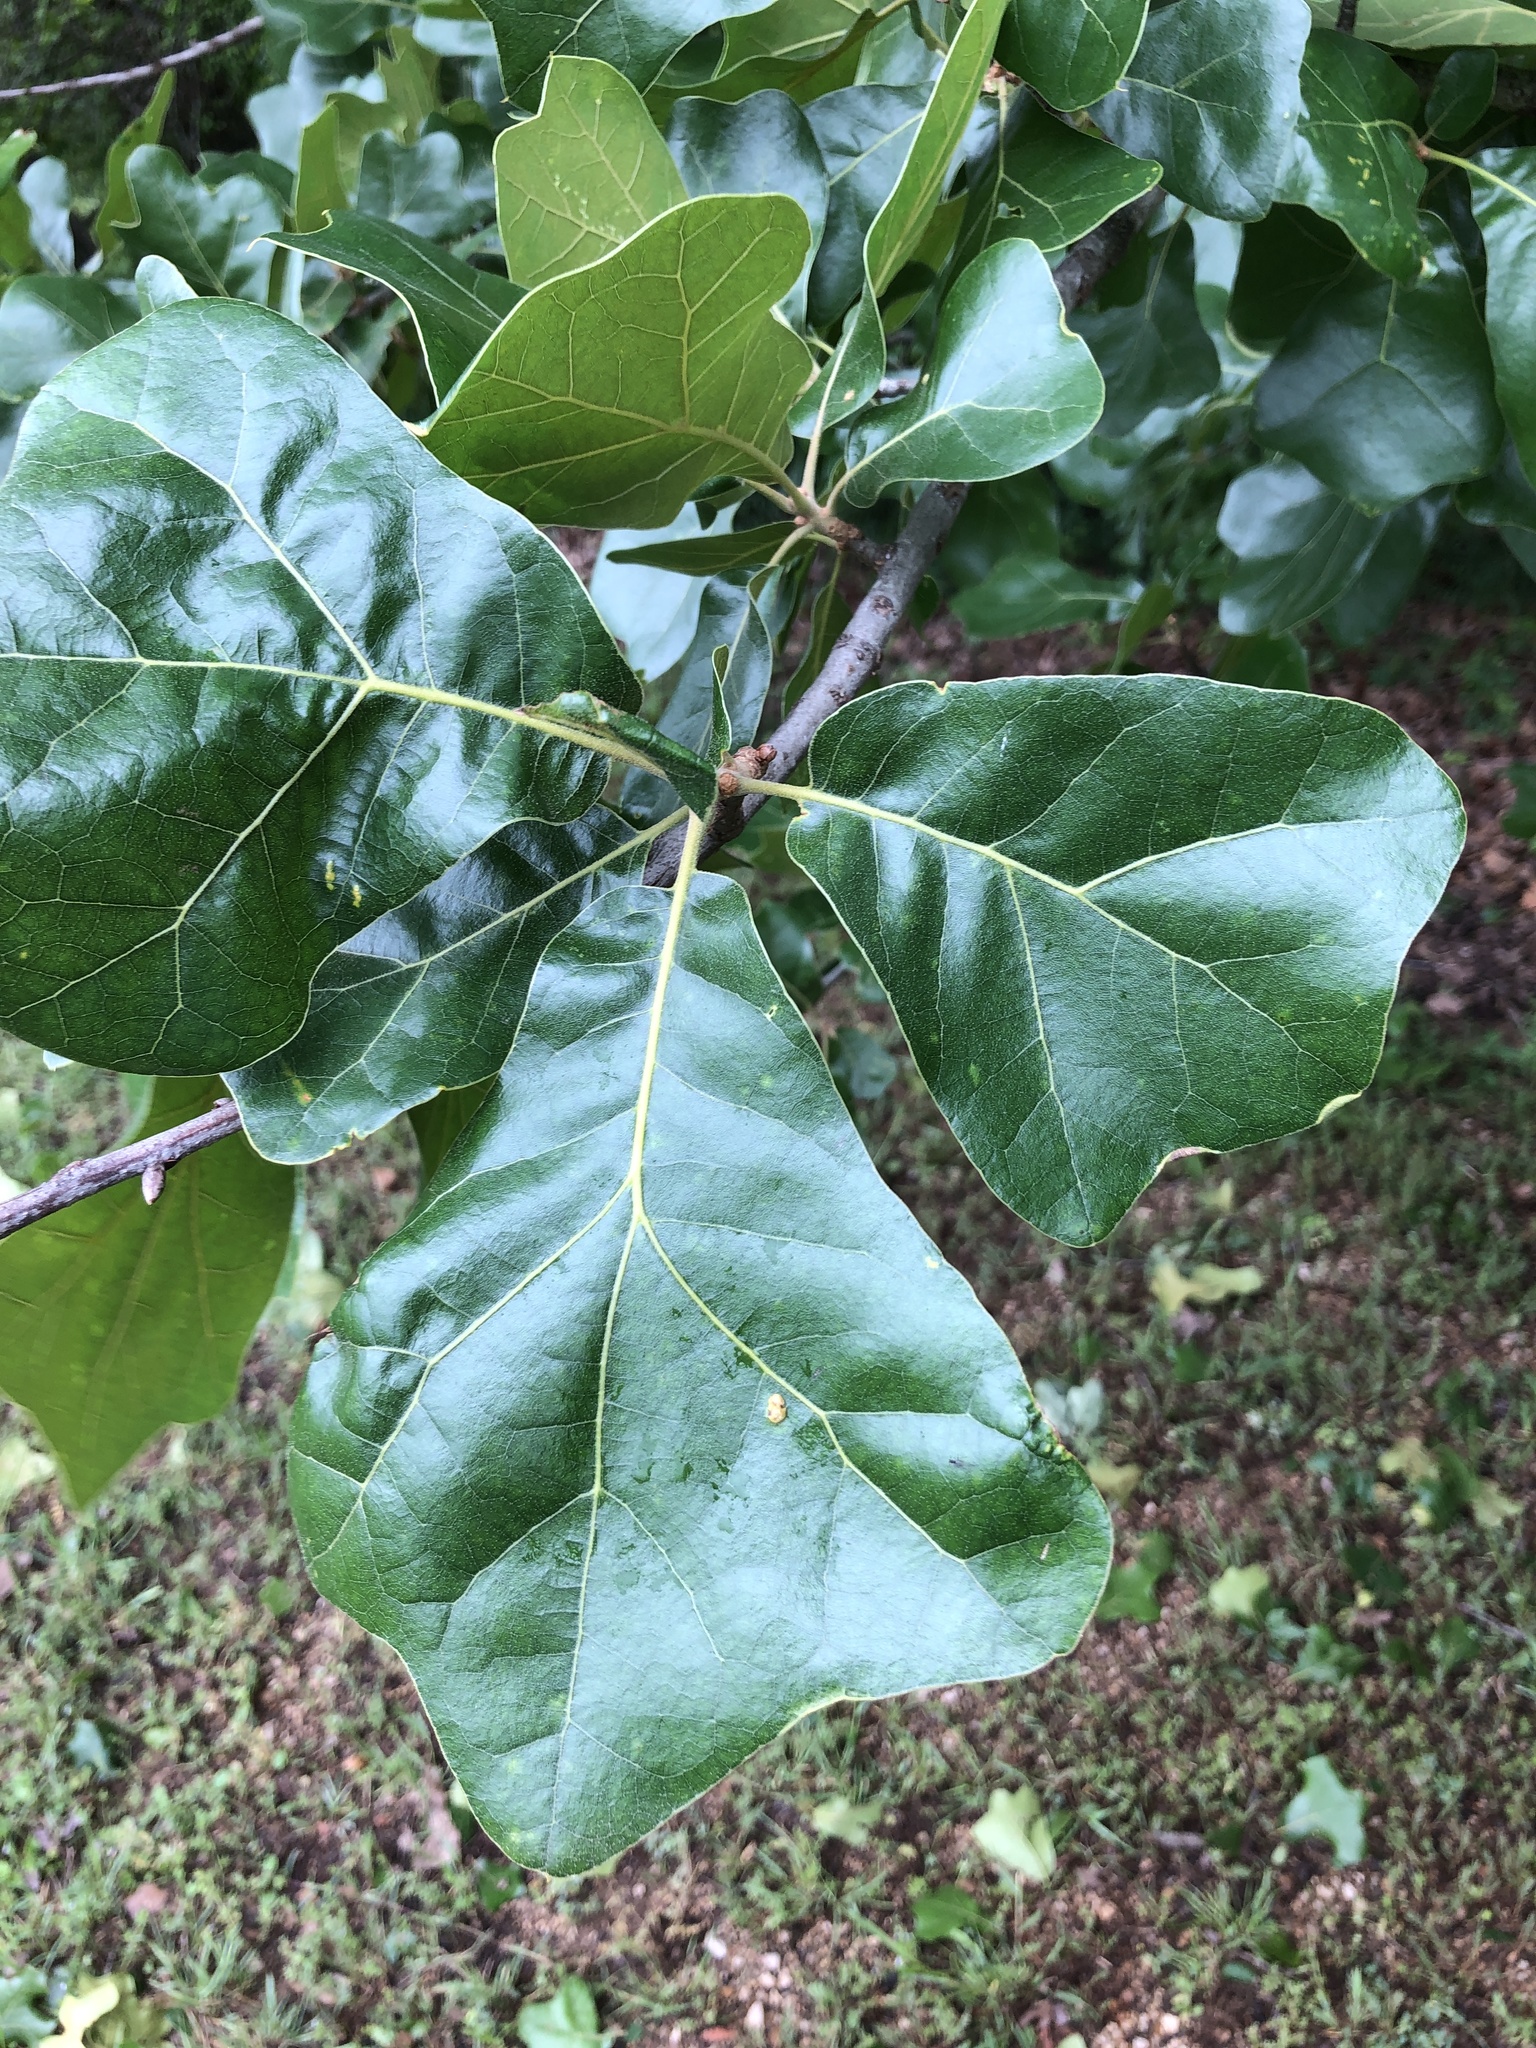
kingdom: Plantae
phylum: Tracheophyta
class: Magnoliopsida
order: Fagales
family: Fagaceae
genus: Quercus
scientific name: Quercus marilandica
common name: Blackjack oak
